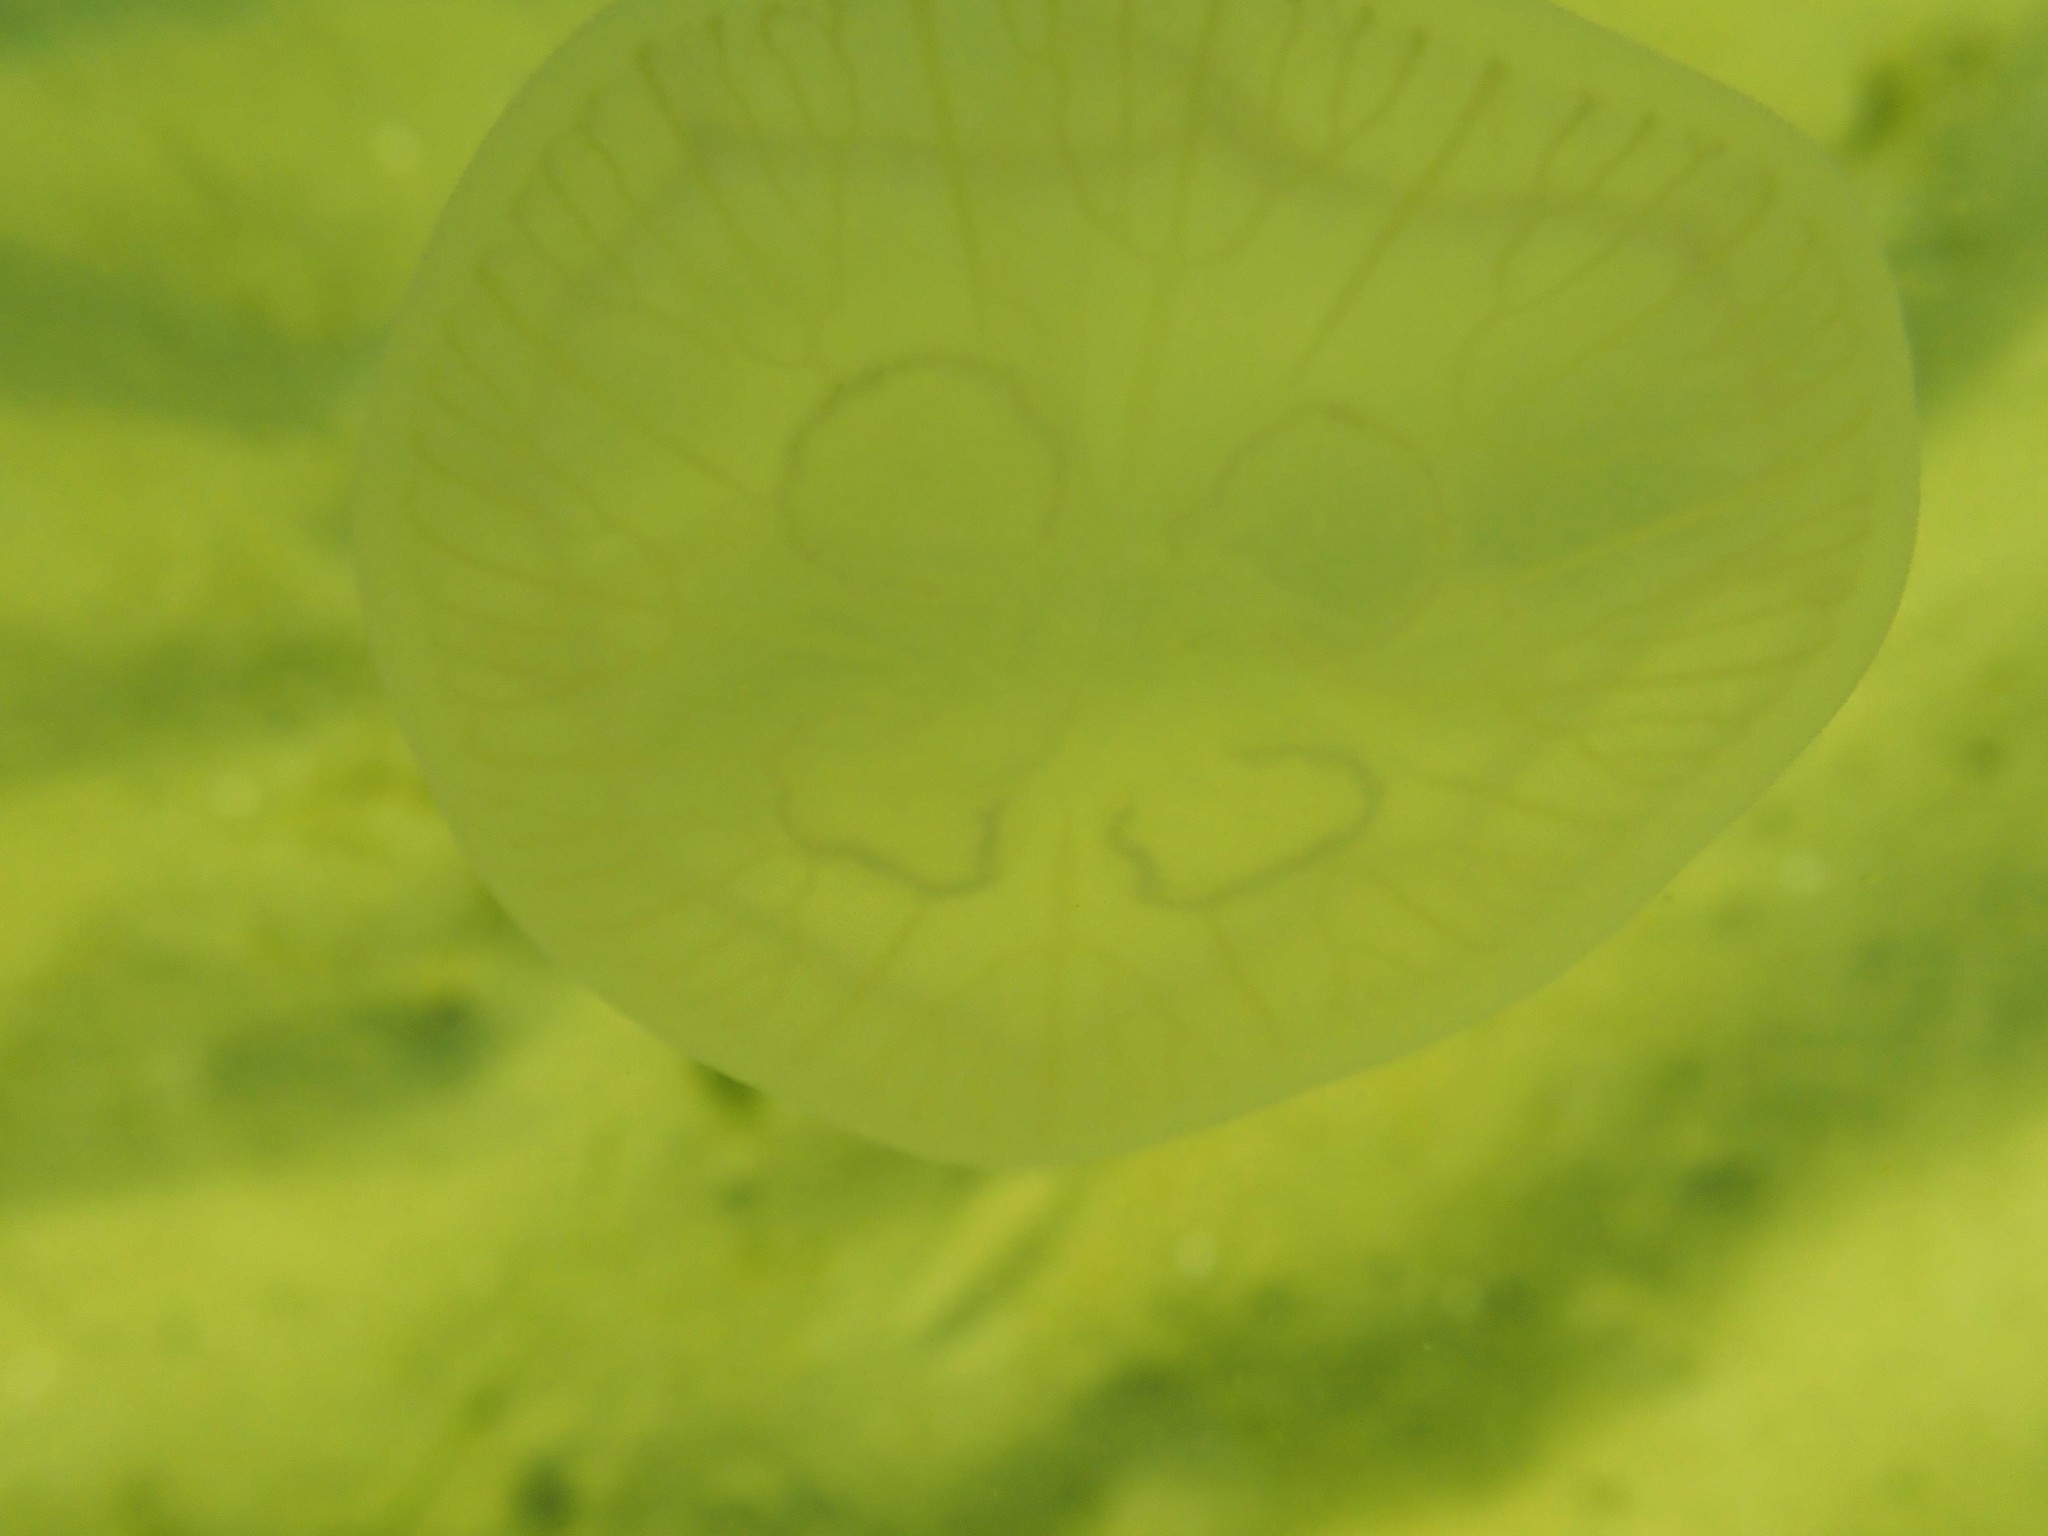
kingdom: Animalia
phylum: Cnidaria
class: Scyphozoa
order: Semaeostomeae
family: Ulmaridae
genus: Aurelia
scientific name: Aurelia aurita
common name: Moon jellyfish
